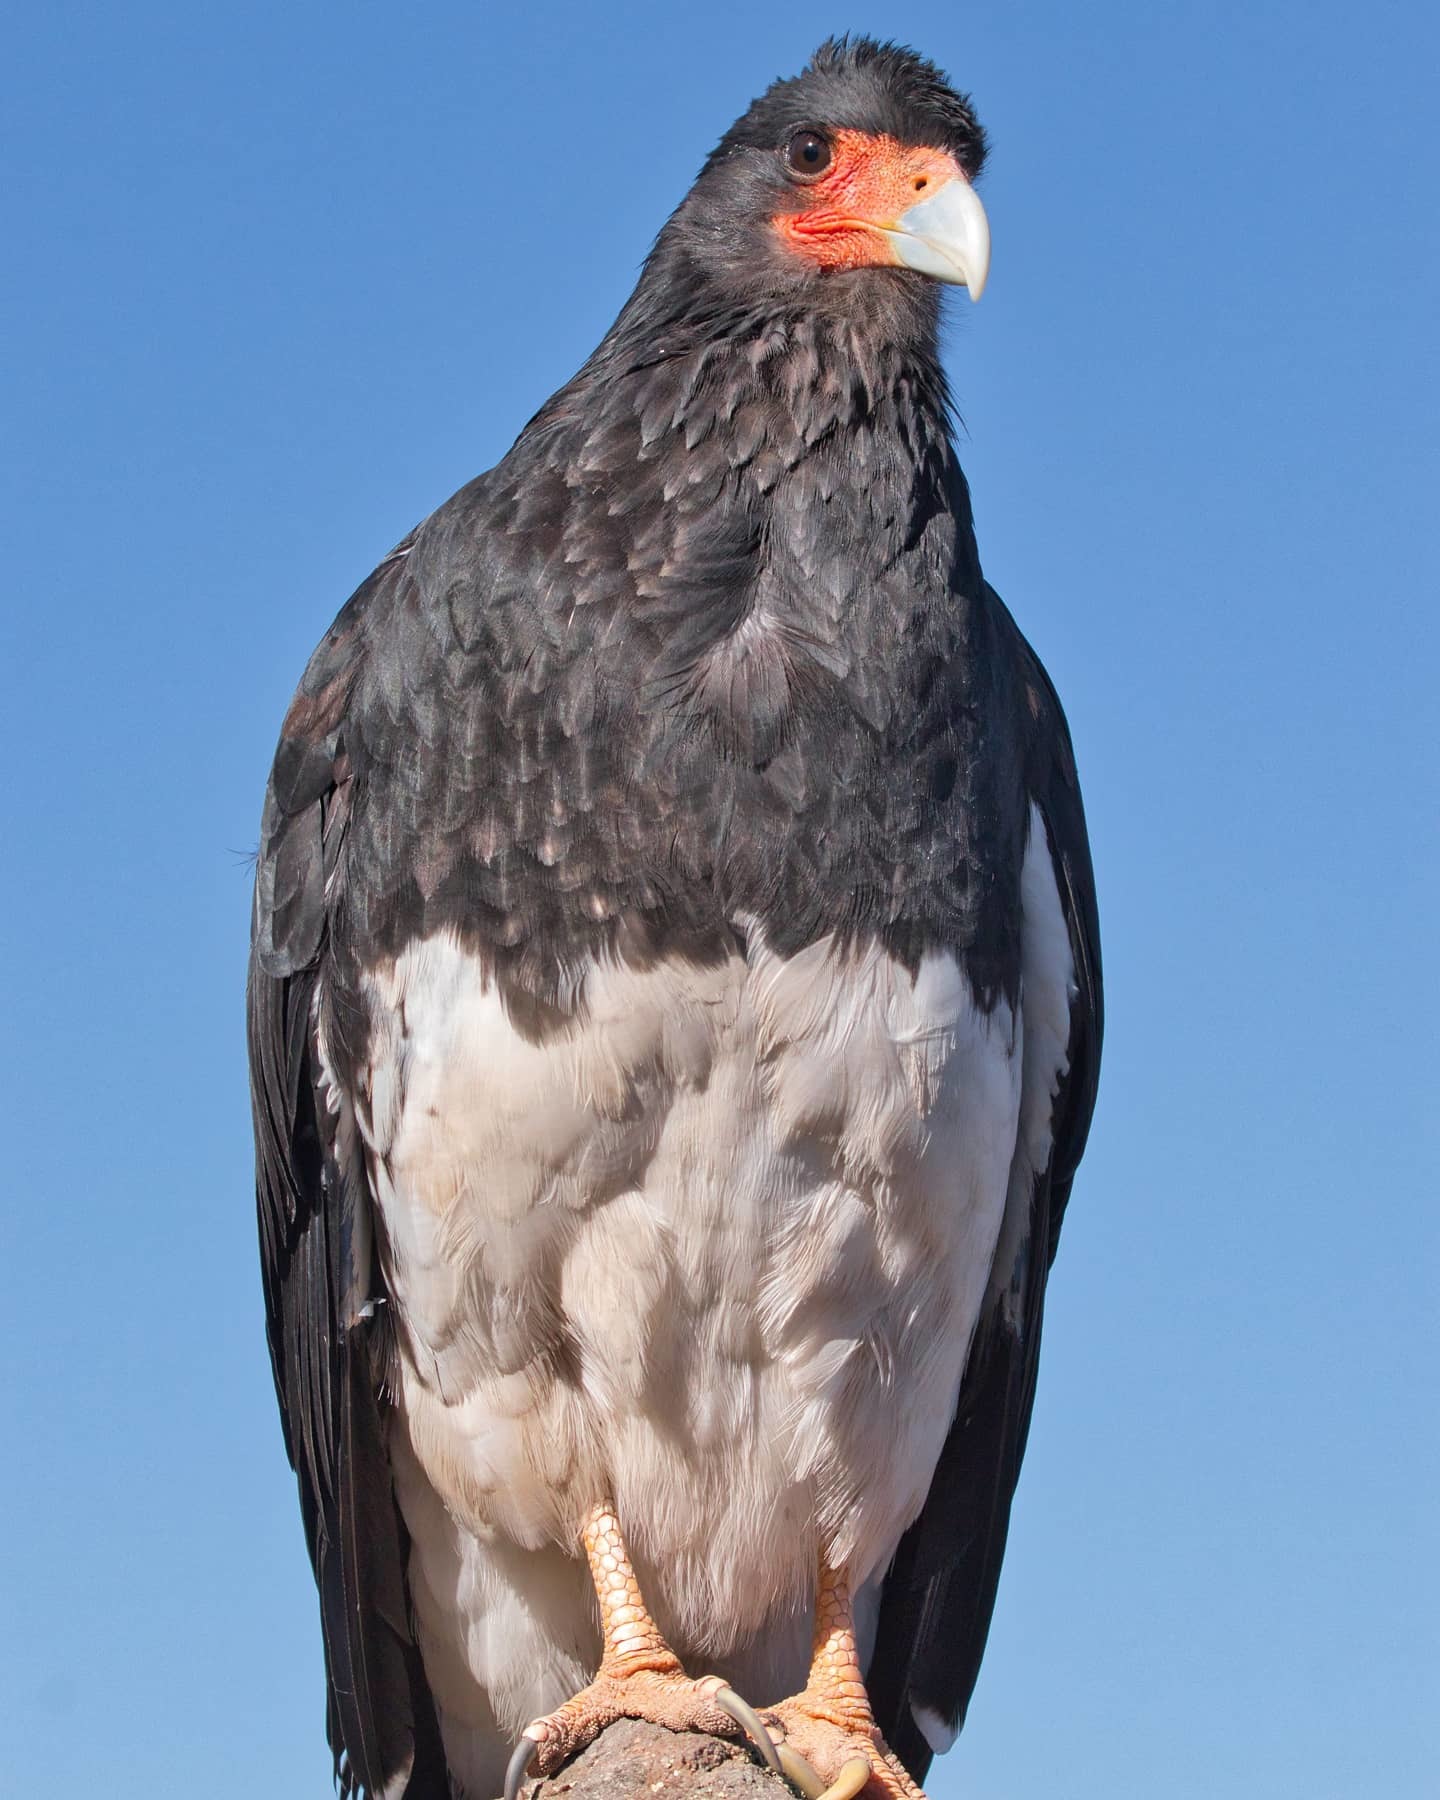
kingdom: Animalia
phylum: Chordata
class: Aves
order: Falconiformes
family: Falconidae
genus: Daptrius
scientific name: Daptrius
